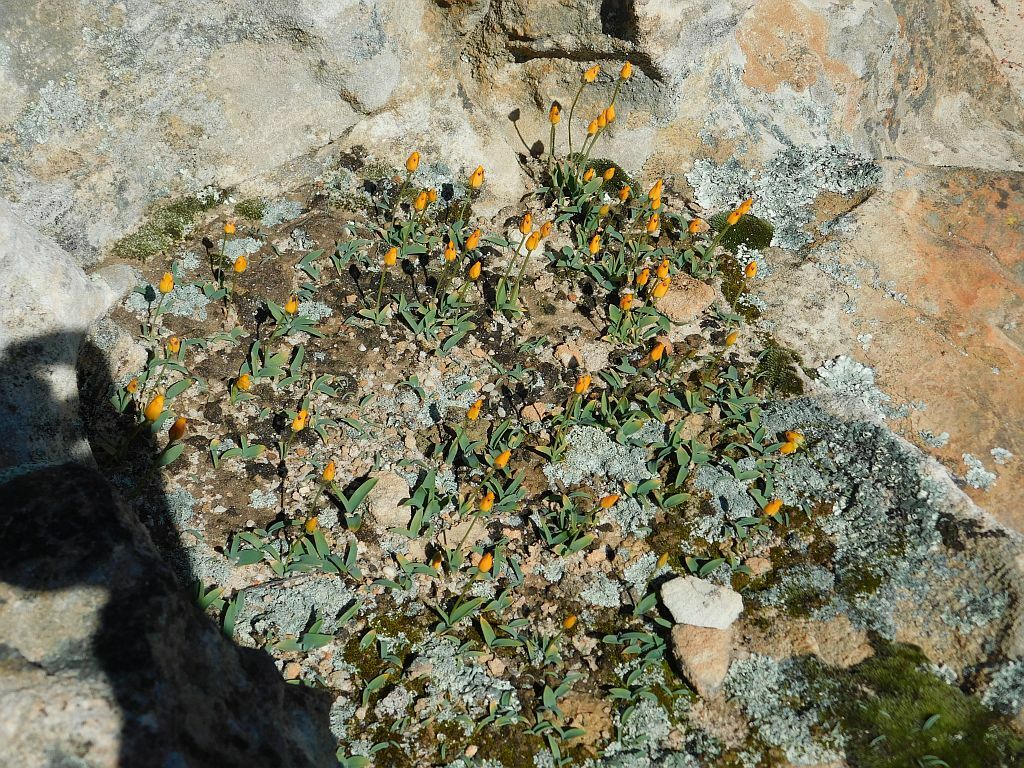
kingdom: Plantae
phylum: Tracheophyta
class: Liliopsida
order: Asparagales
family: Asparagaceae
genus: Ornithogalum
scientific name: Ornithogalum maculatum
